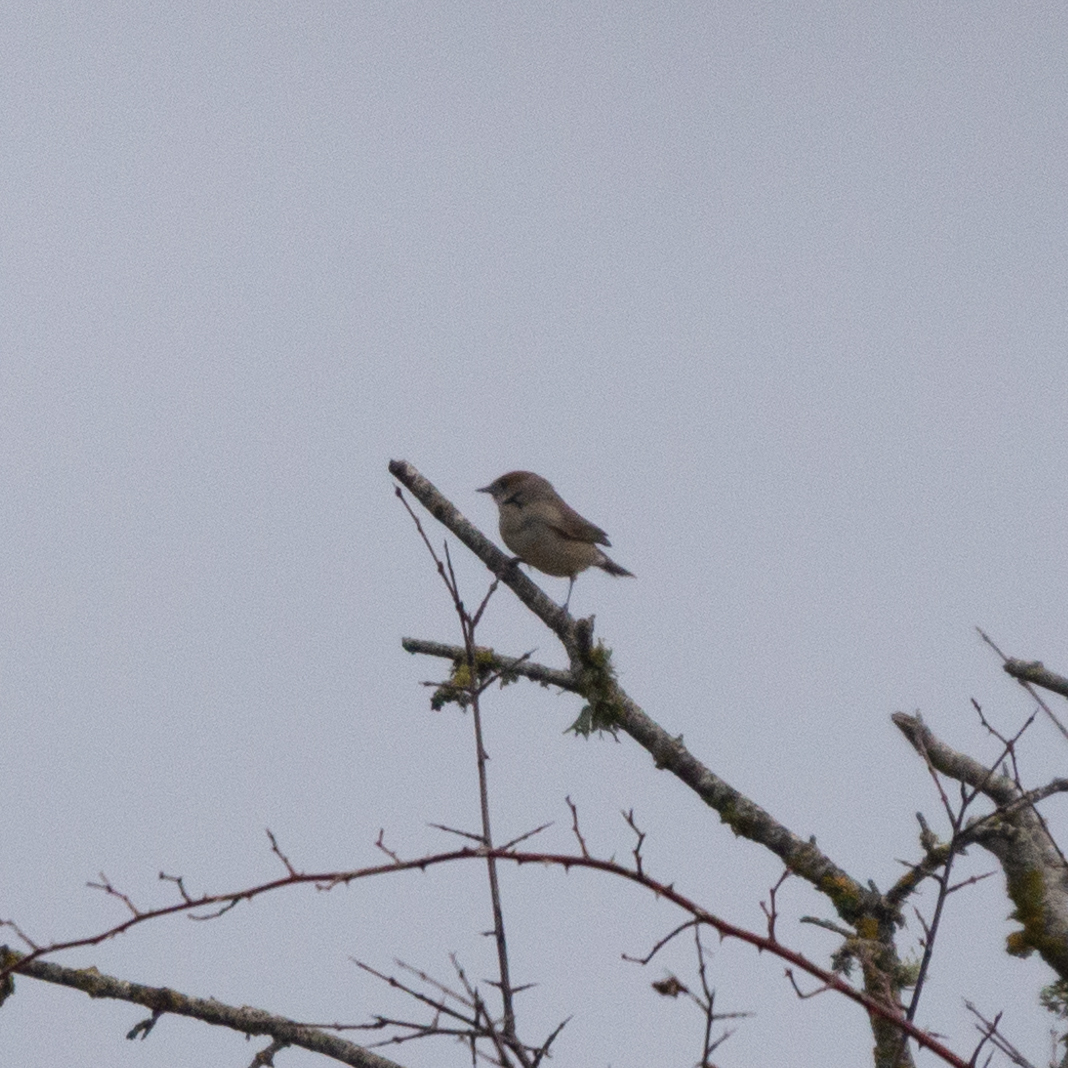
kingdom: Animalia
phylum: Chordata
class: Aves
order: Passeriformes
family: Sylviidae
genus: Sylvia
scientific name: Sylvia atricapilla
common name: Eurasian blackcap
